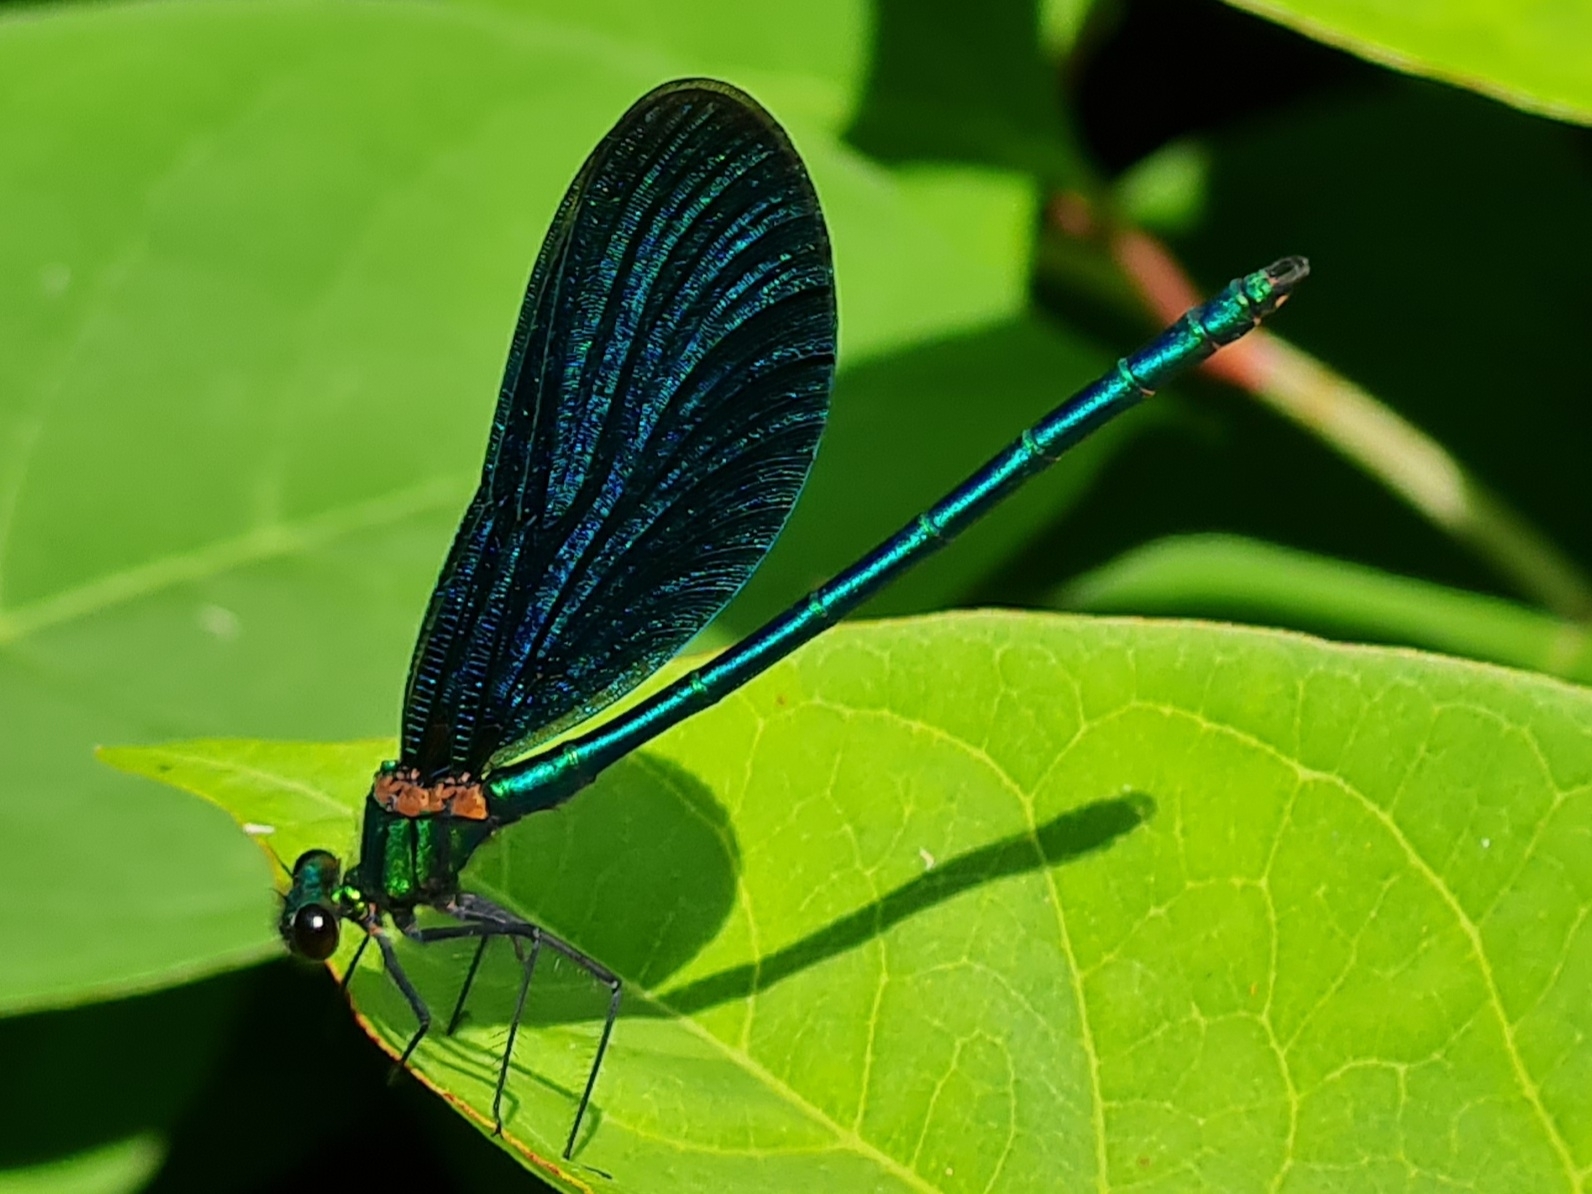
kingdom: Animalia
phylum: Arthropoda
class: Insecta
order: Odonata
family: Calopterygidae
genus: Calopteryx
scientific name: Calopteryx virgo
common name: Beautiful demoiselle
